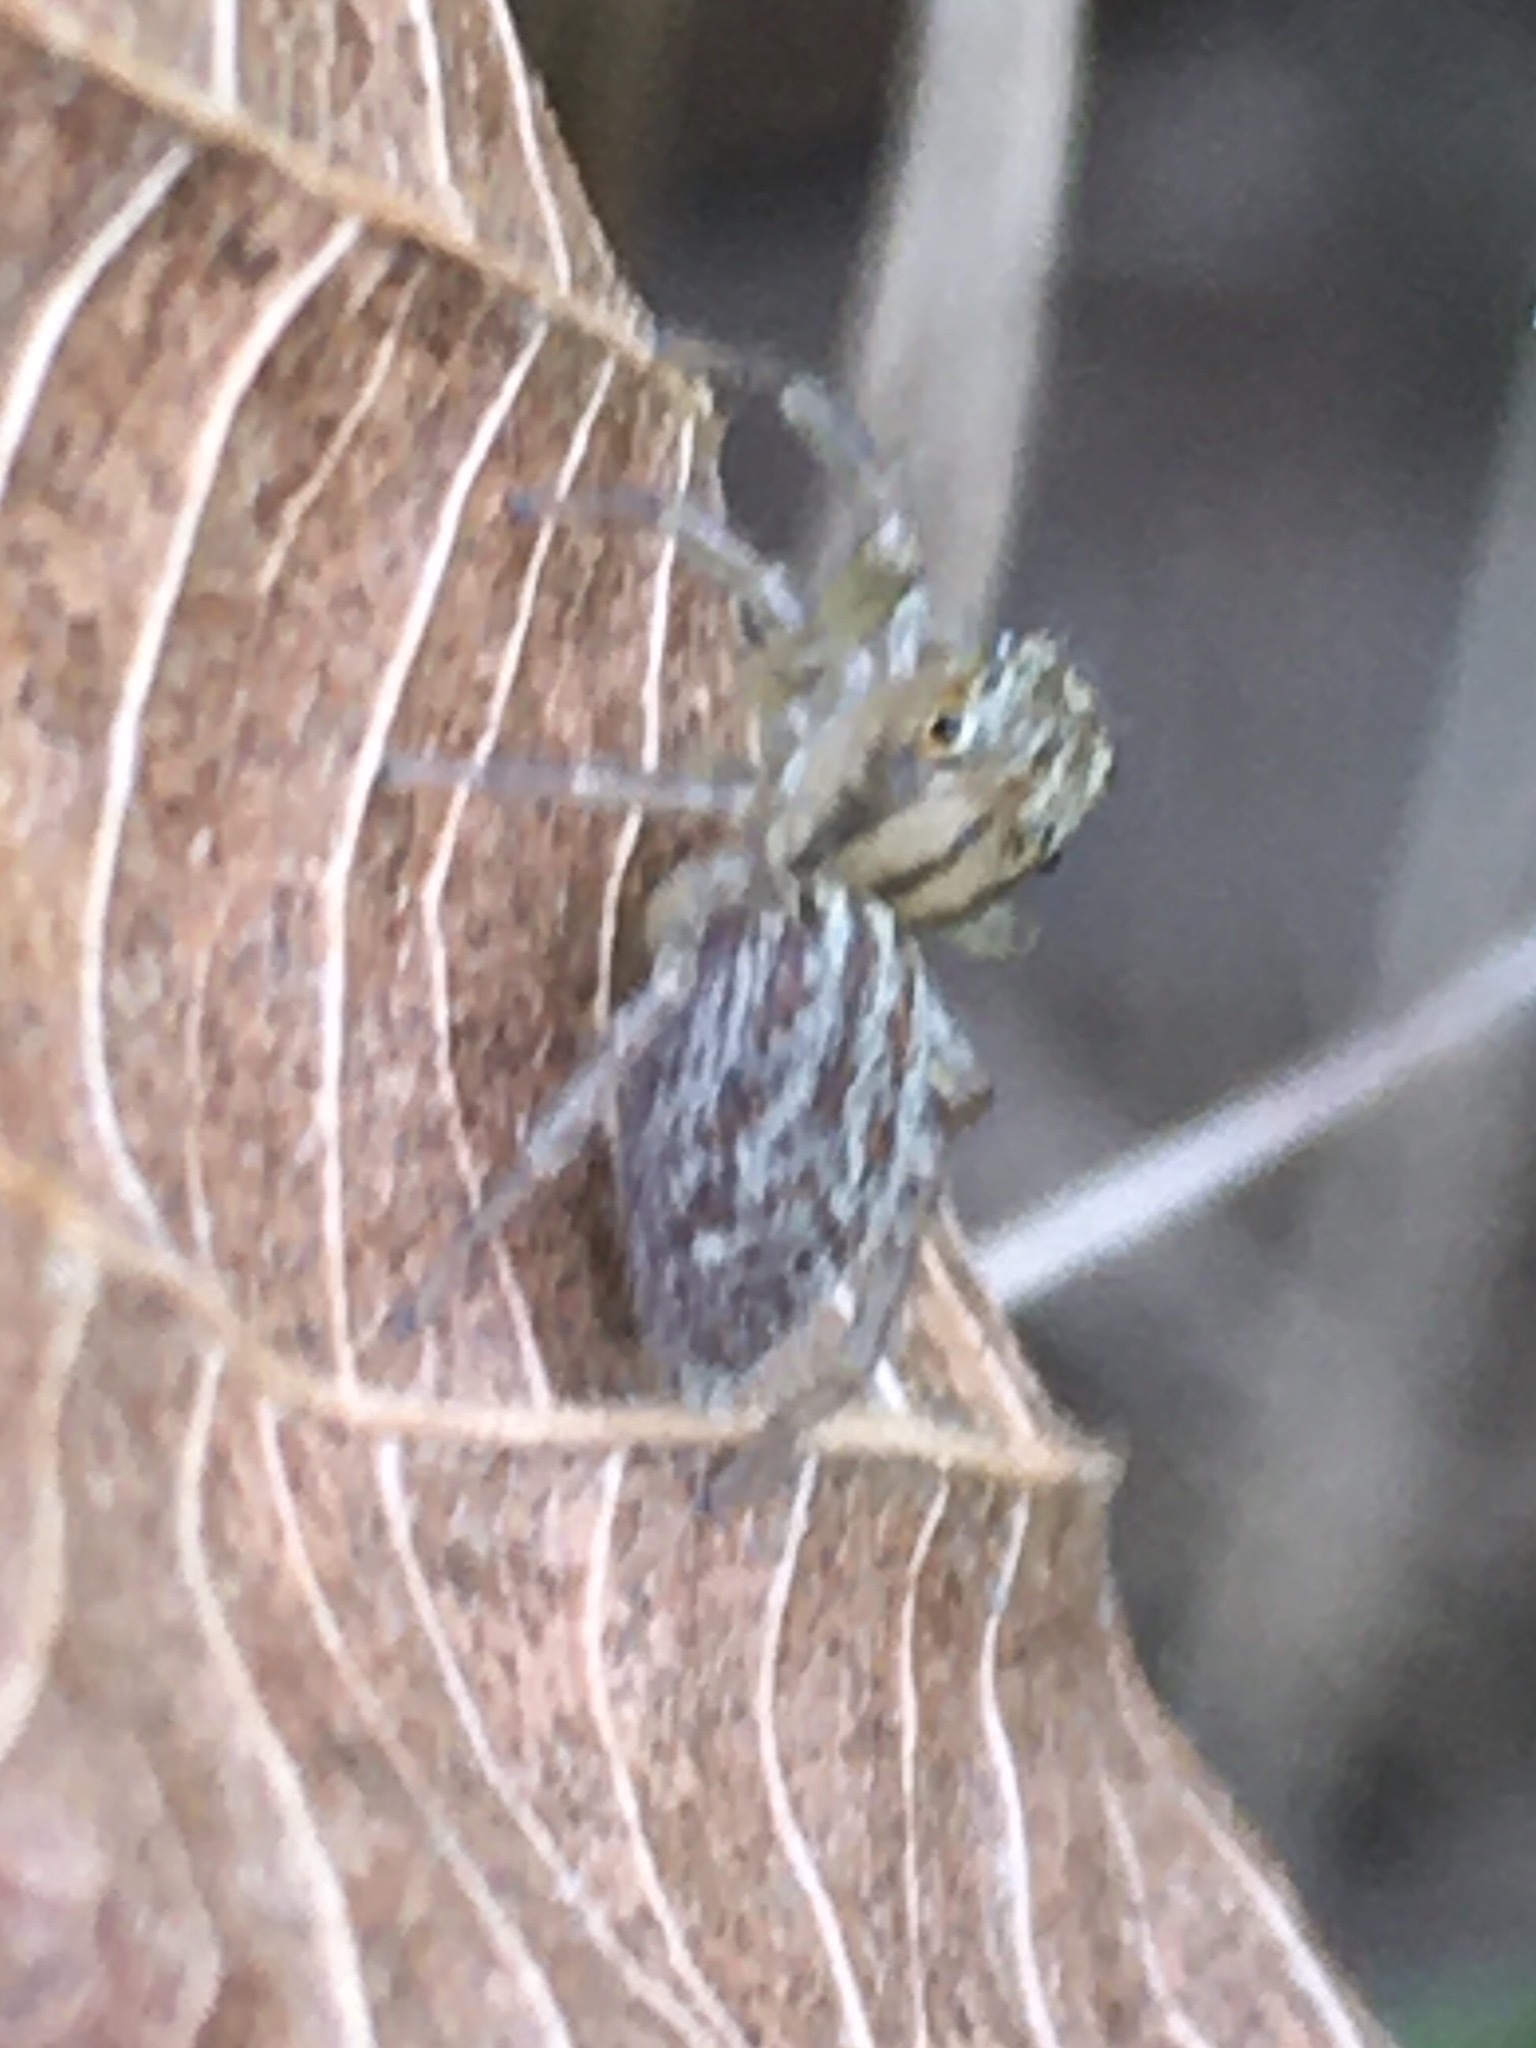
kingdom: Animalia
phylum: Arthropoda
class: Arachnida
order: Araneae
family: Salticidae
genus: Maevia
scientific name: Maevia inclemens
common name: Dimorphic jumper
